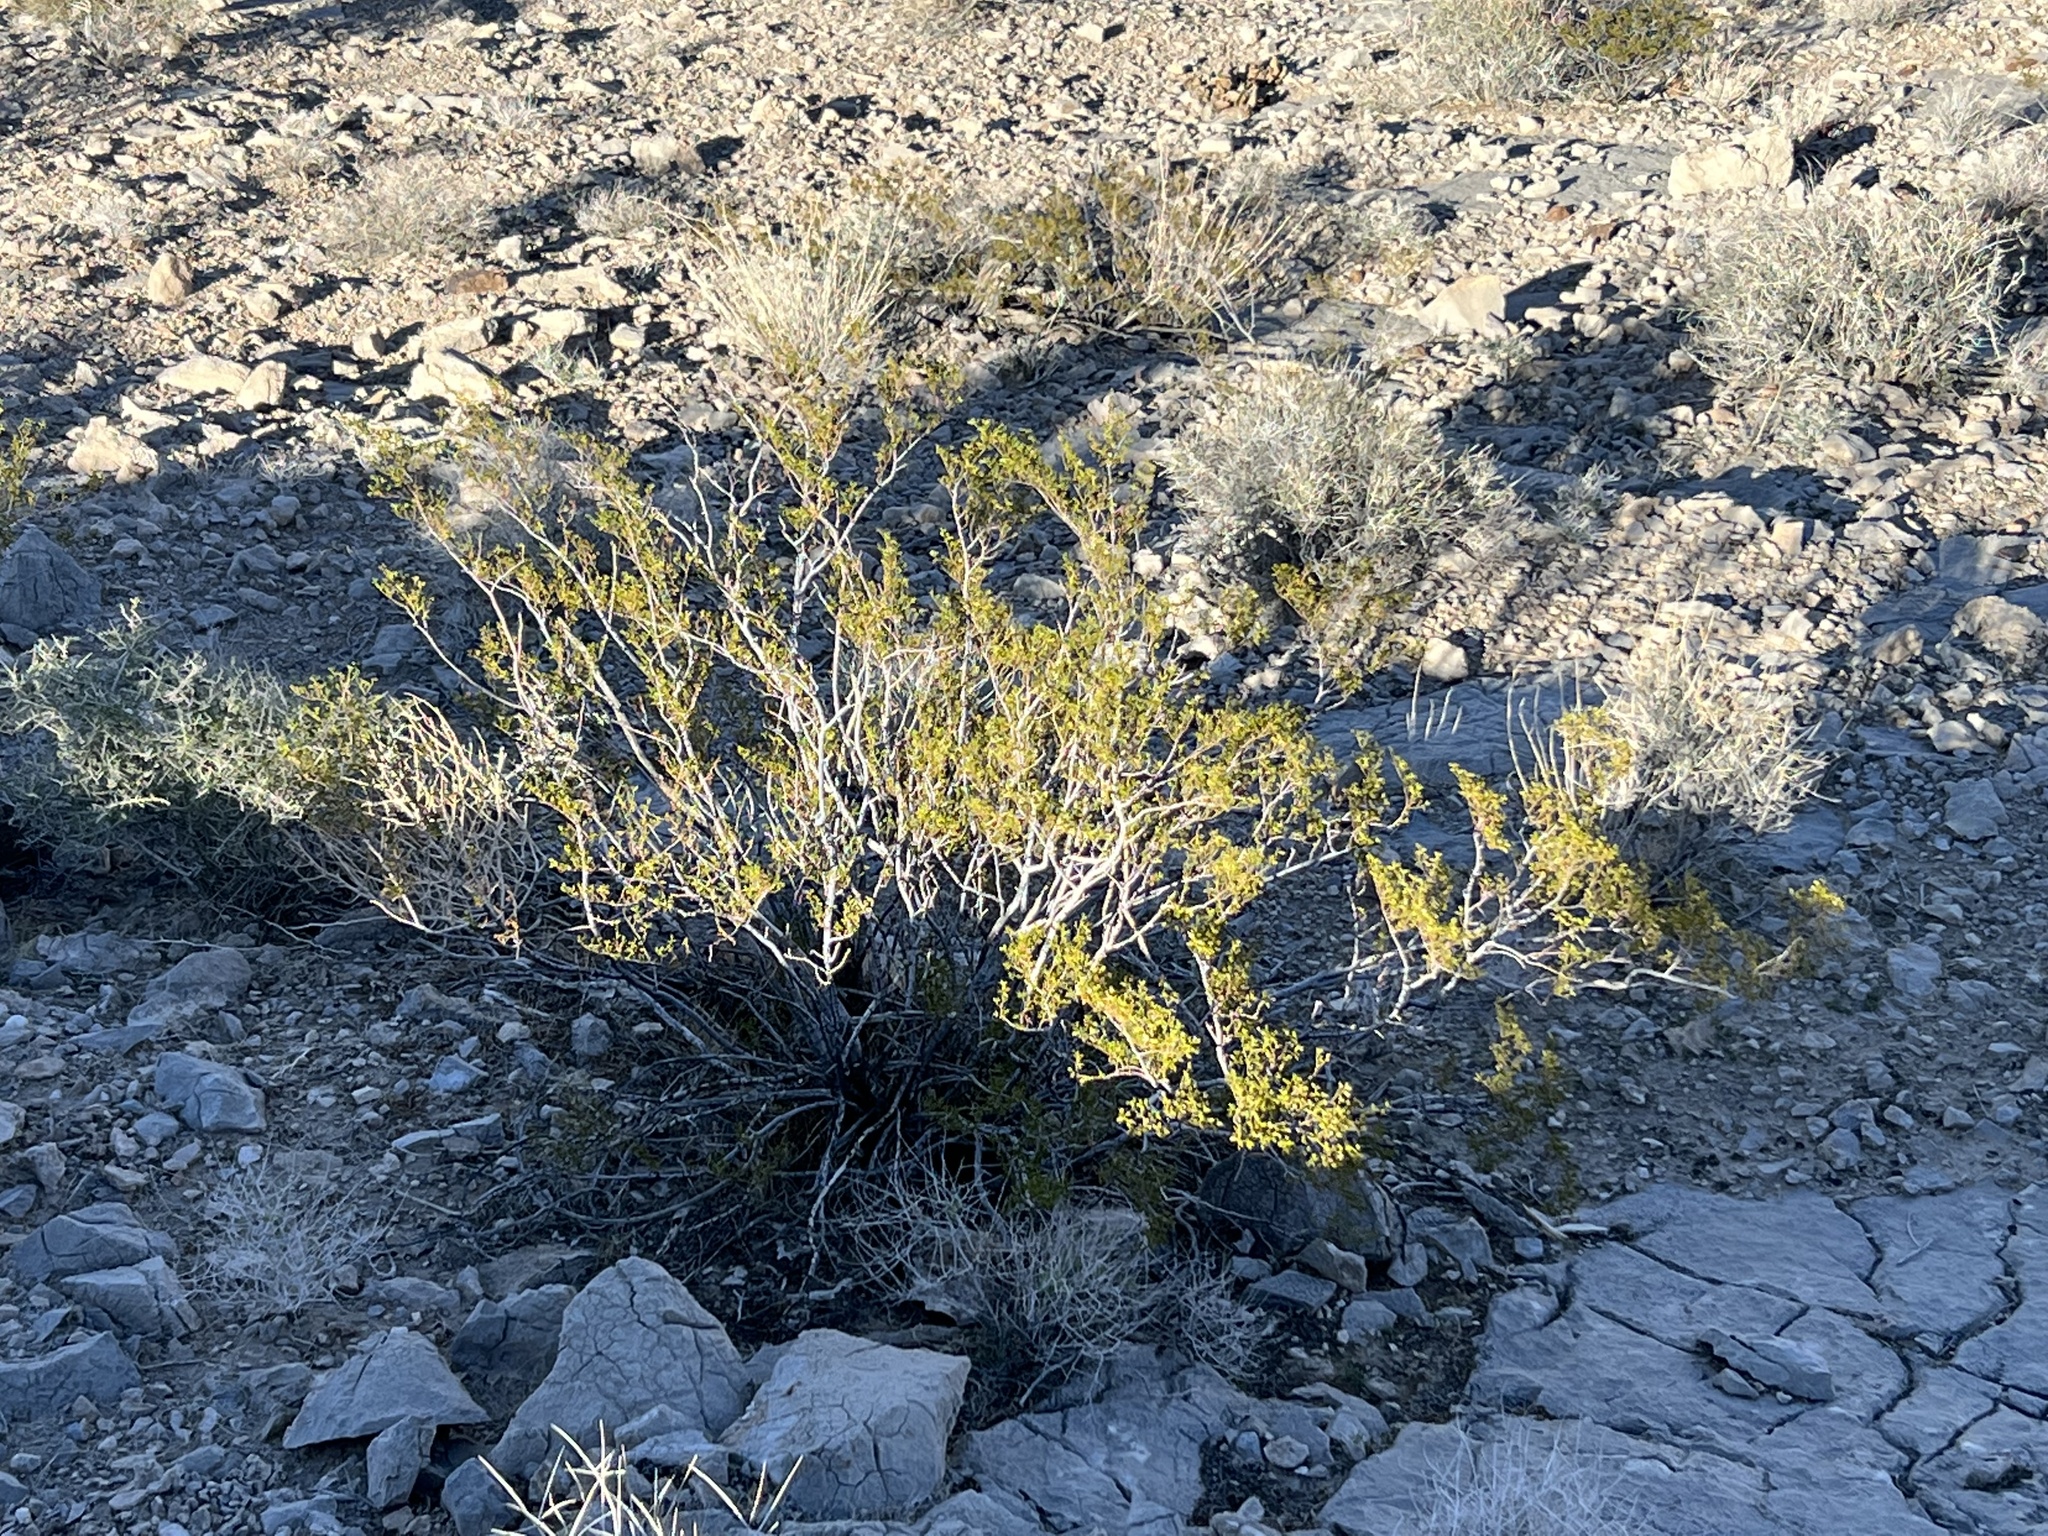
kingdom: Plantae
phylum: Tracheophyta
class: Magnoliopsida
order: Zygophyllales
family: Zygophyllaceae
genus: Larrea
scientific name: Larrea tridentata
